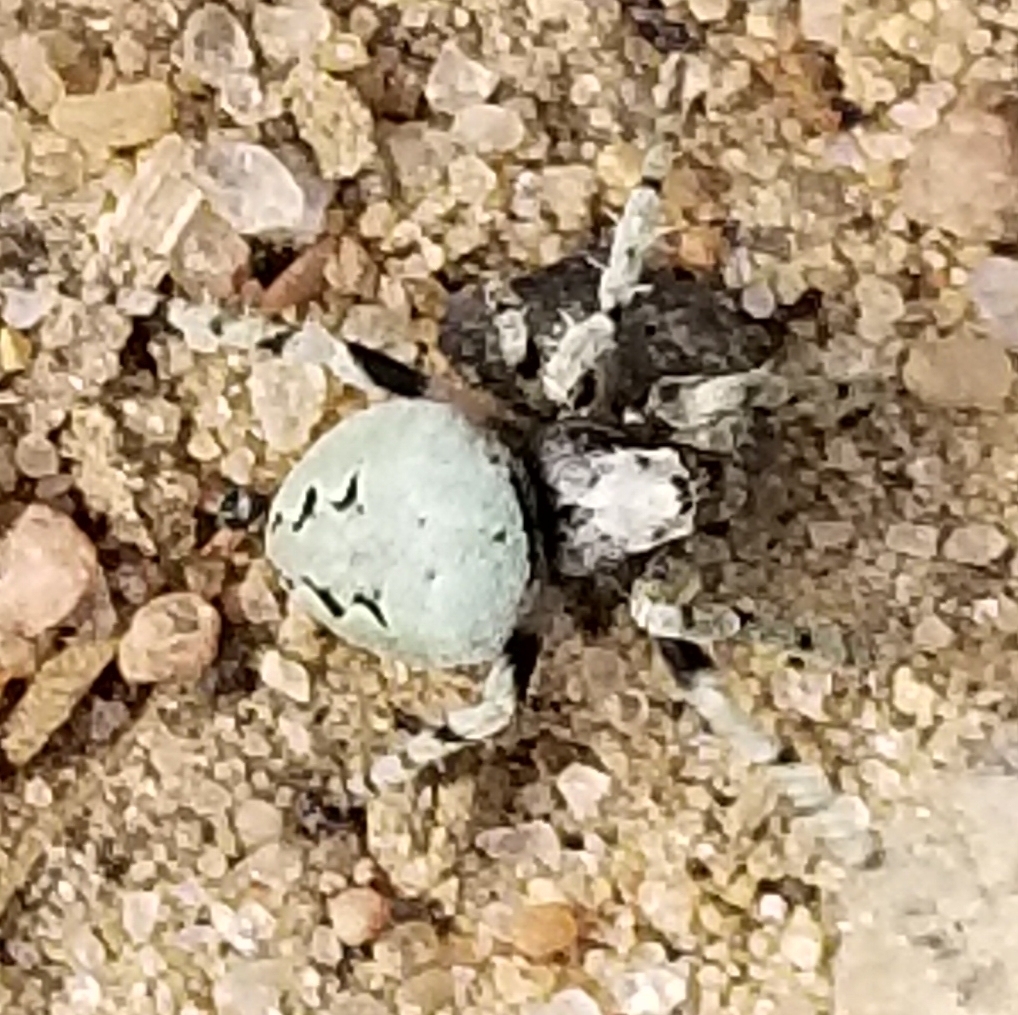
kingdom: Animalia
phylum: Arthropoda
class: Arachnida
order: Araneae
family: Araneidae
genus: Eustala
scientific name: Eustala anastera
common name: Orb weavers
